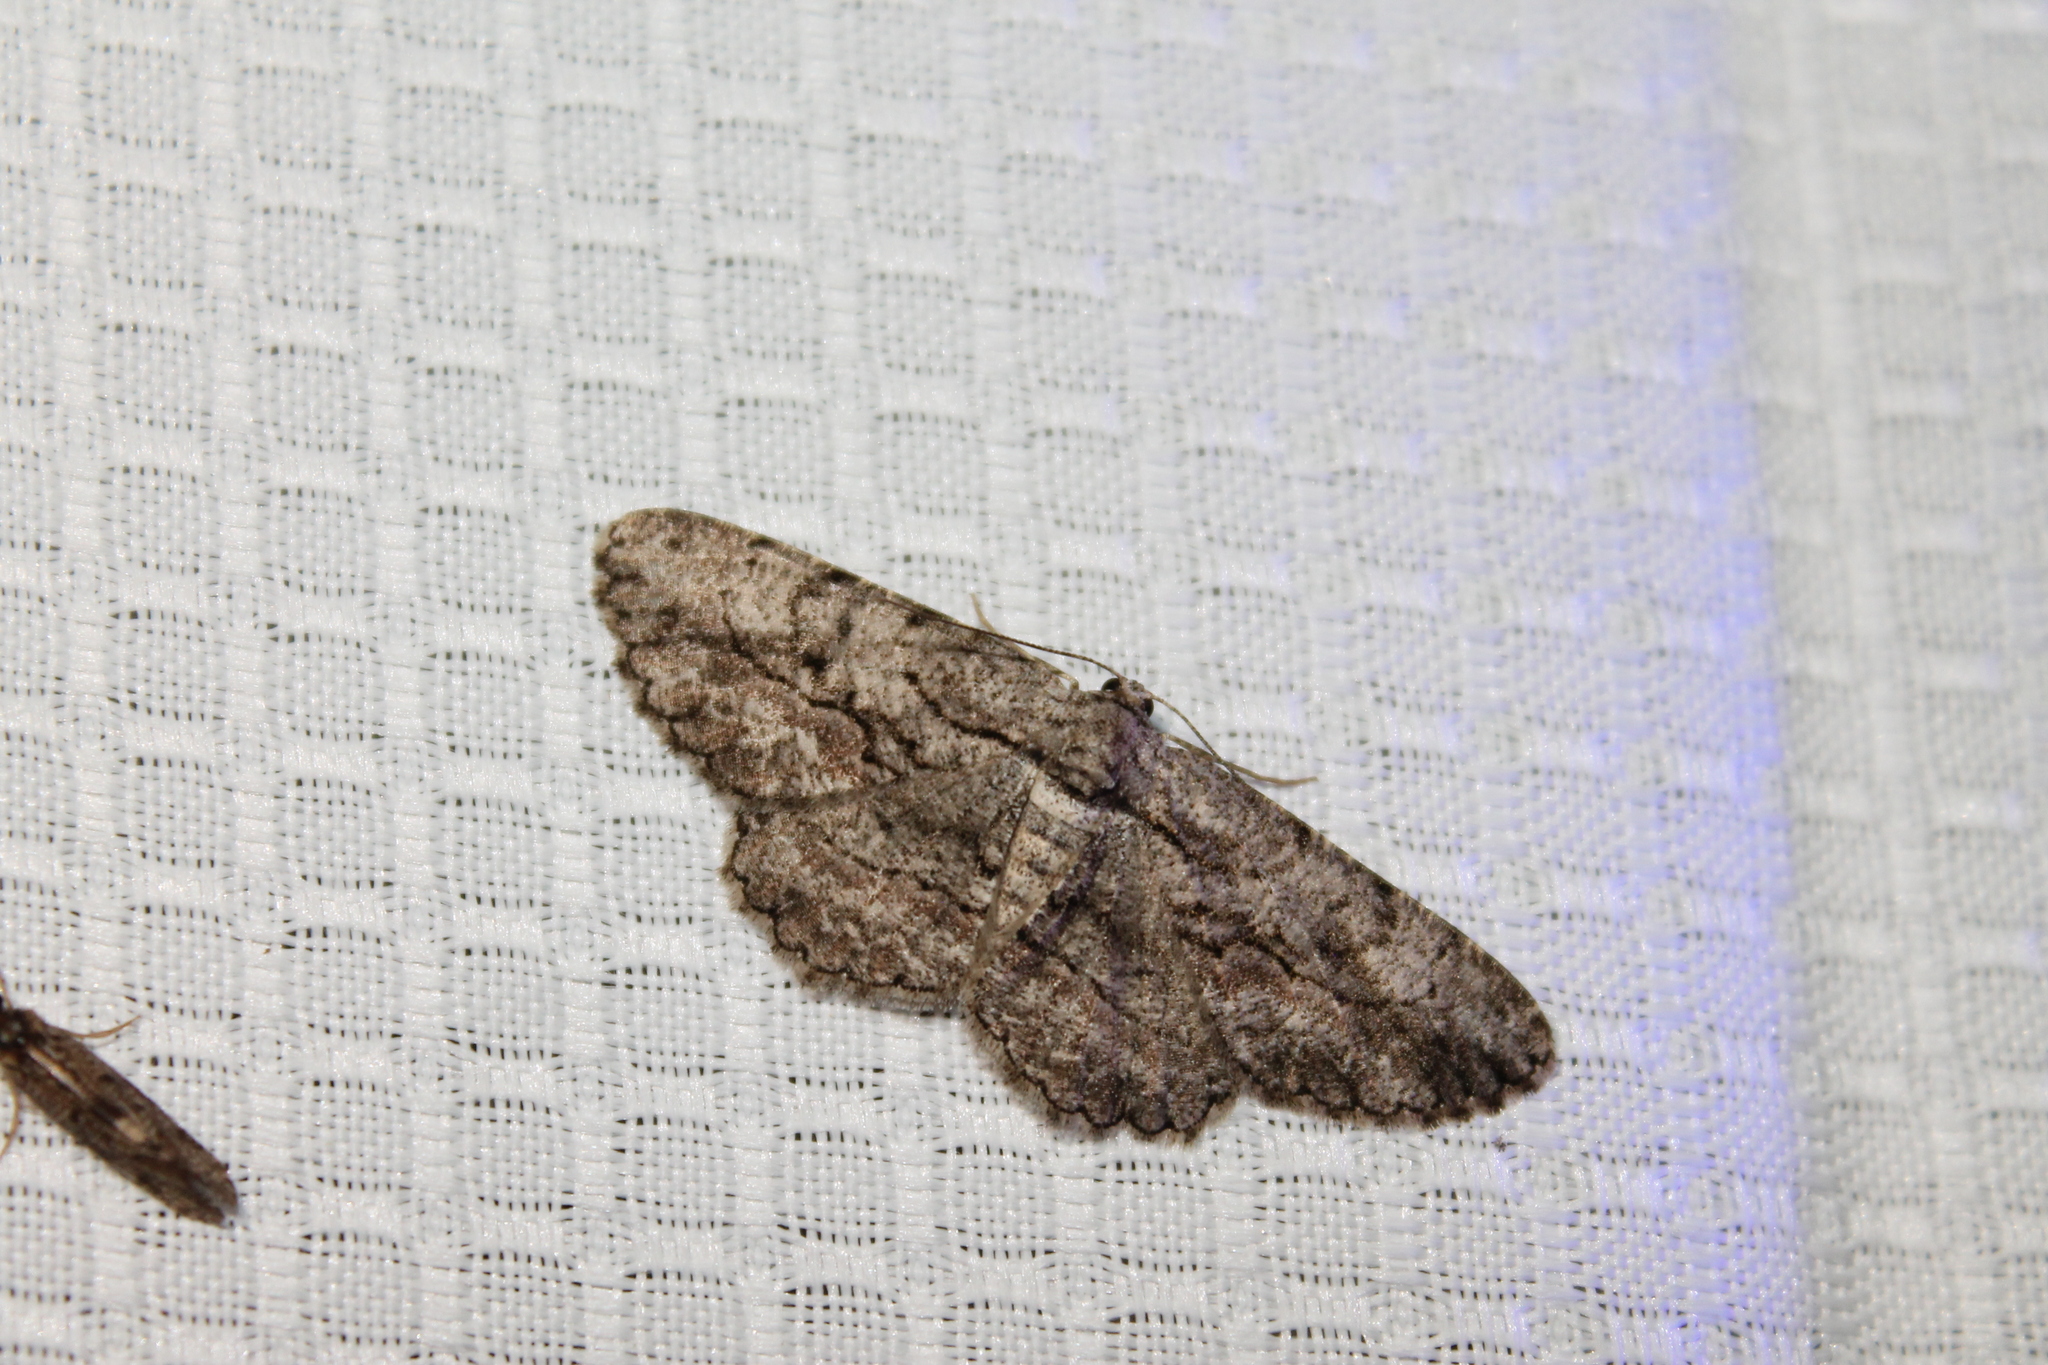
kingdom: Animalia
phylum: Arthropoda
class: Insecta
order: Lepidoptera
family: Geometridae
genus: Anavitrinella
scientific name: Anavitrinella pampinaria
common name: Common gray
